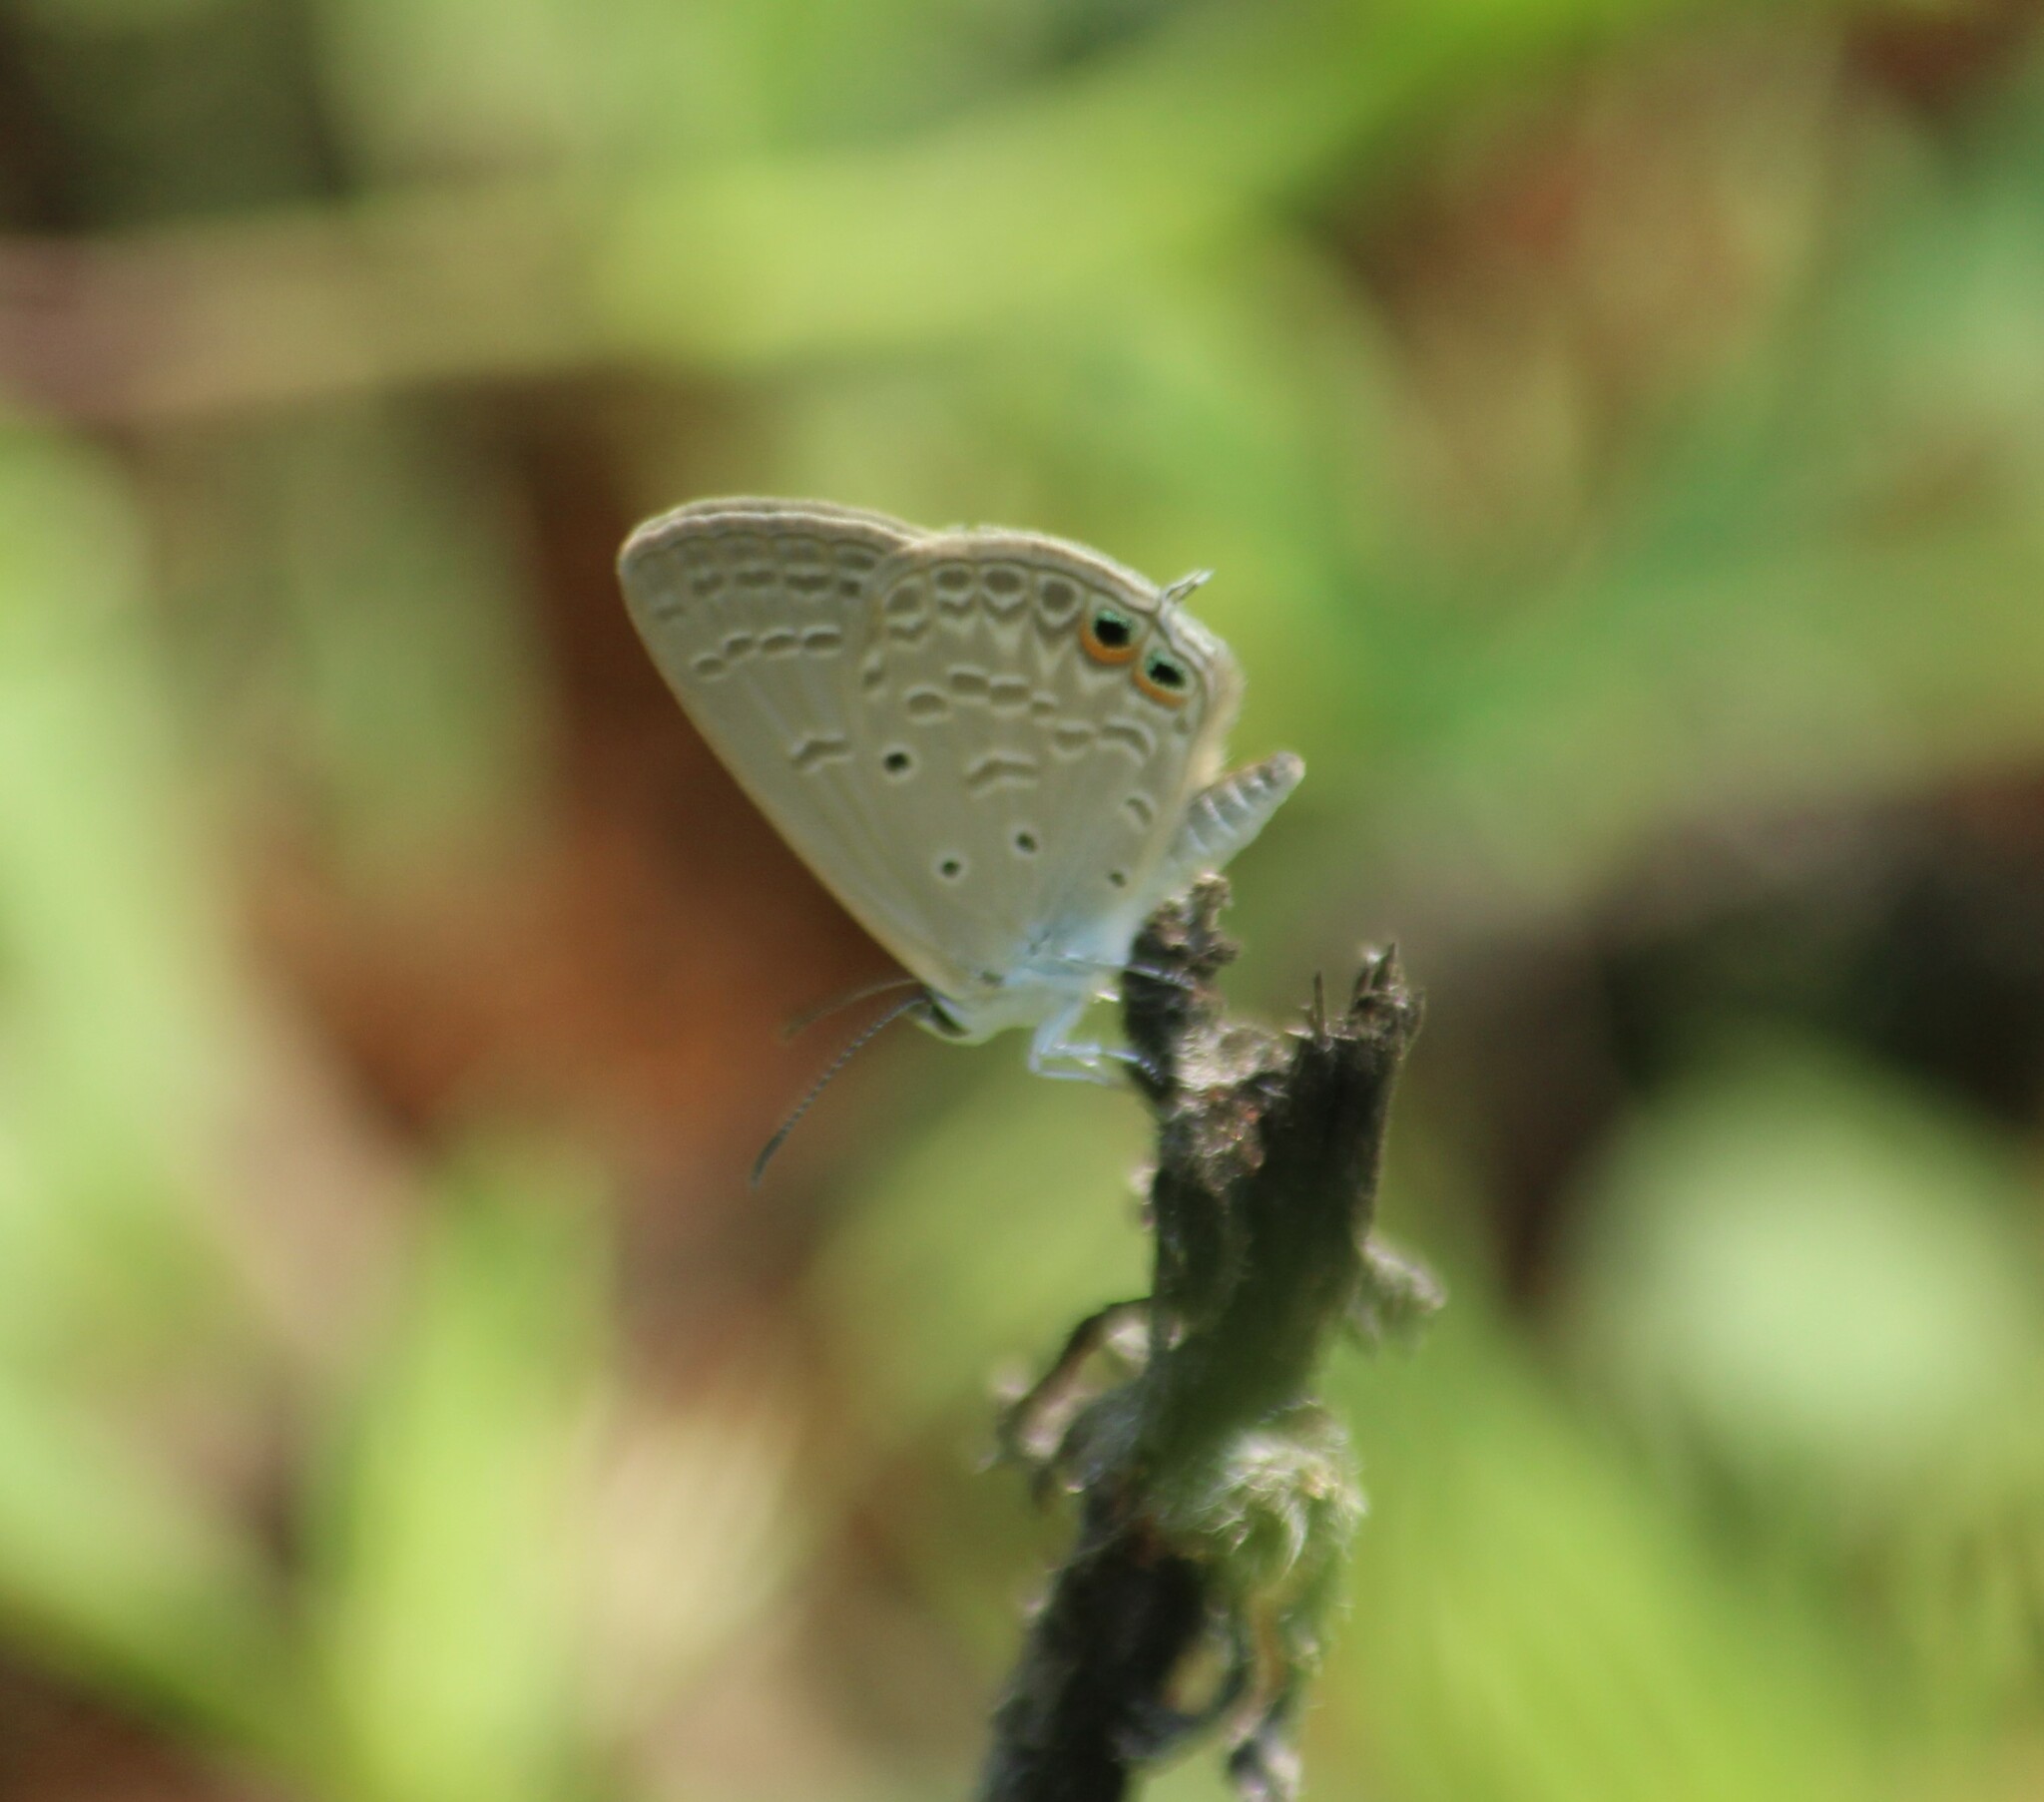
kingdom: Animalia
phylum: Arthropoda
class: Insecta
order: Lepidoptera
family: Lycaenidae
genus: Euchrysops
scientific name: Euchrysops cnejus
